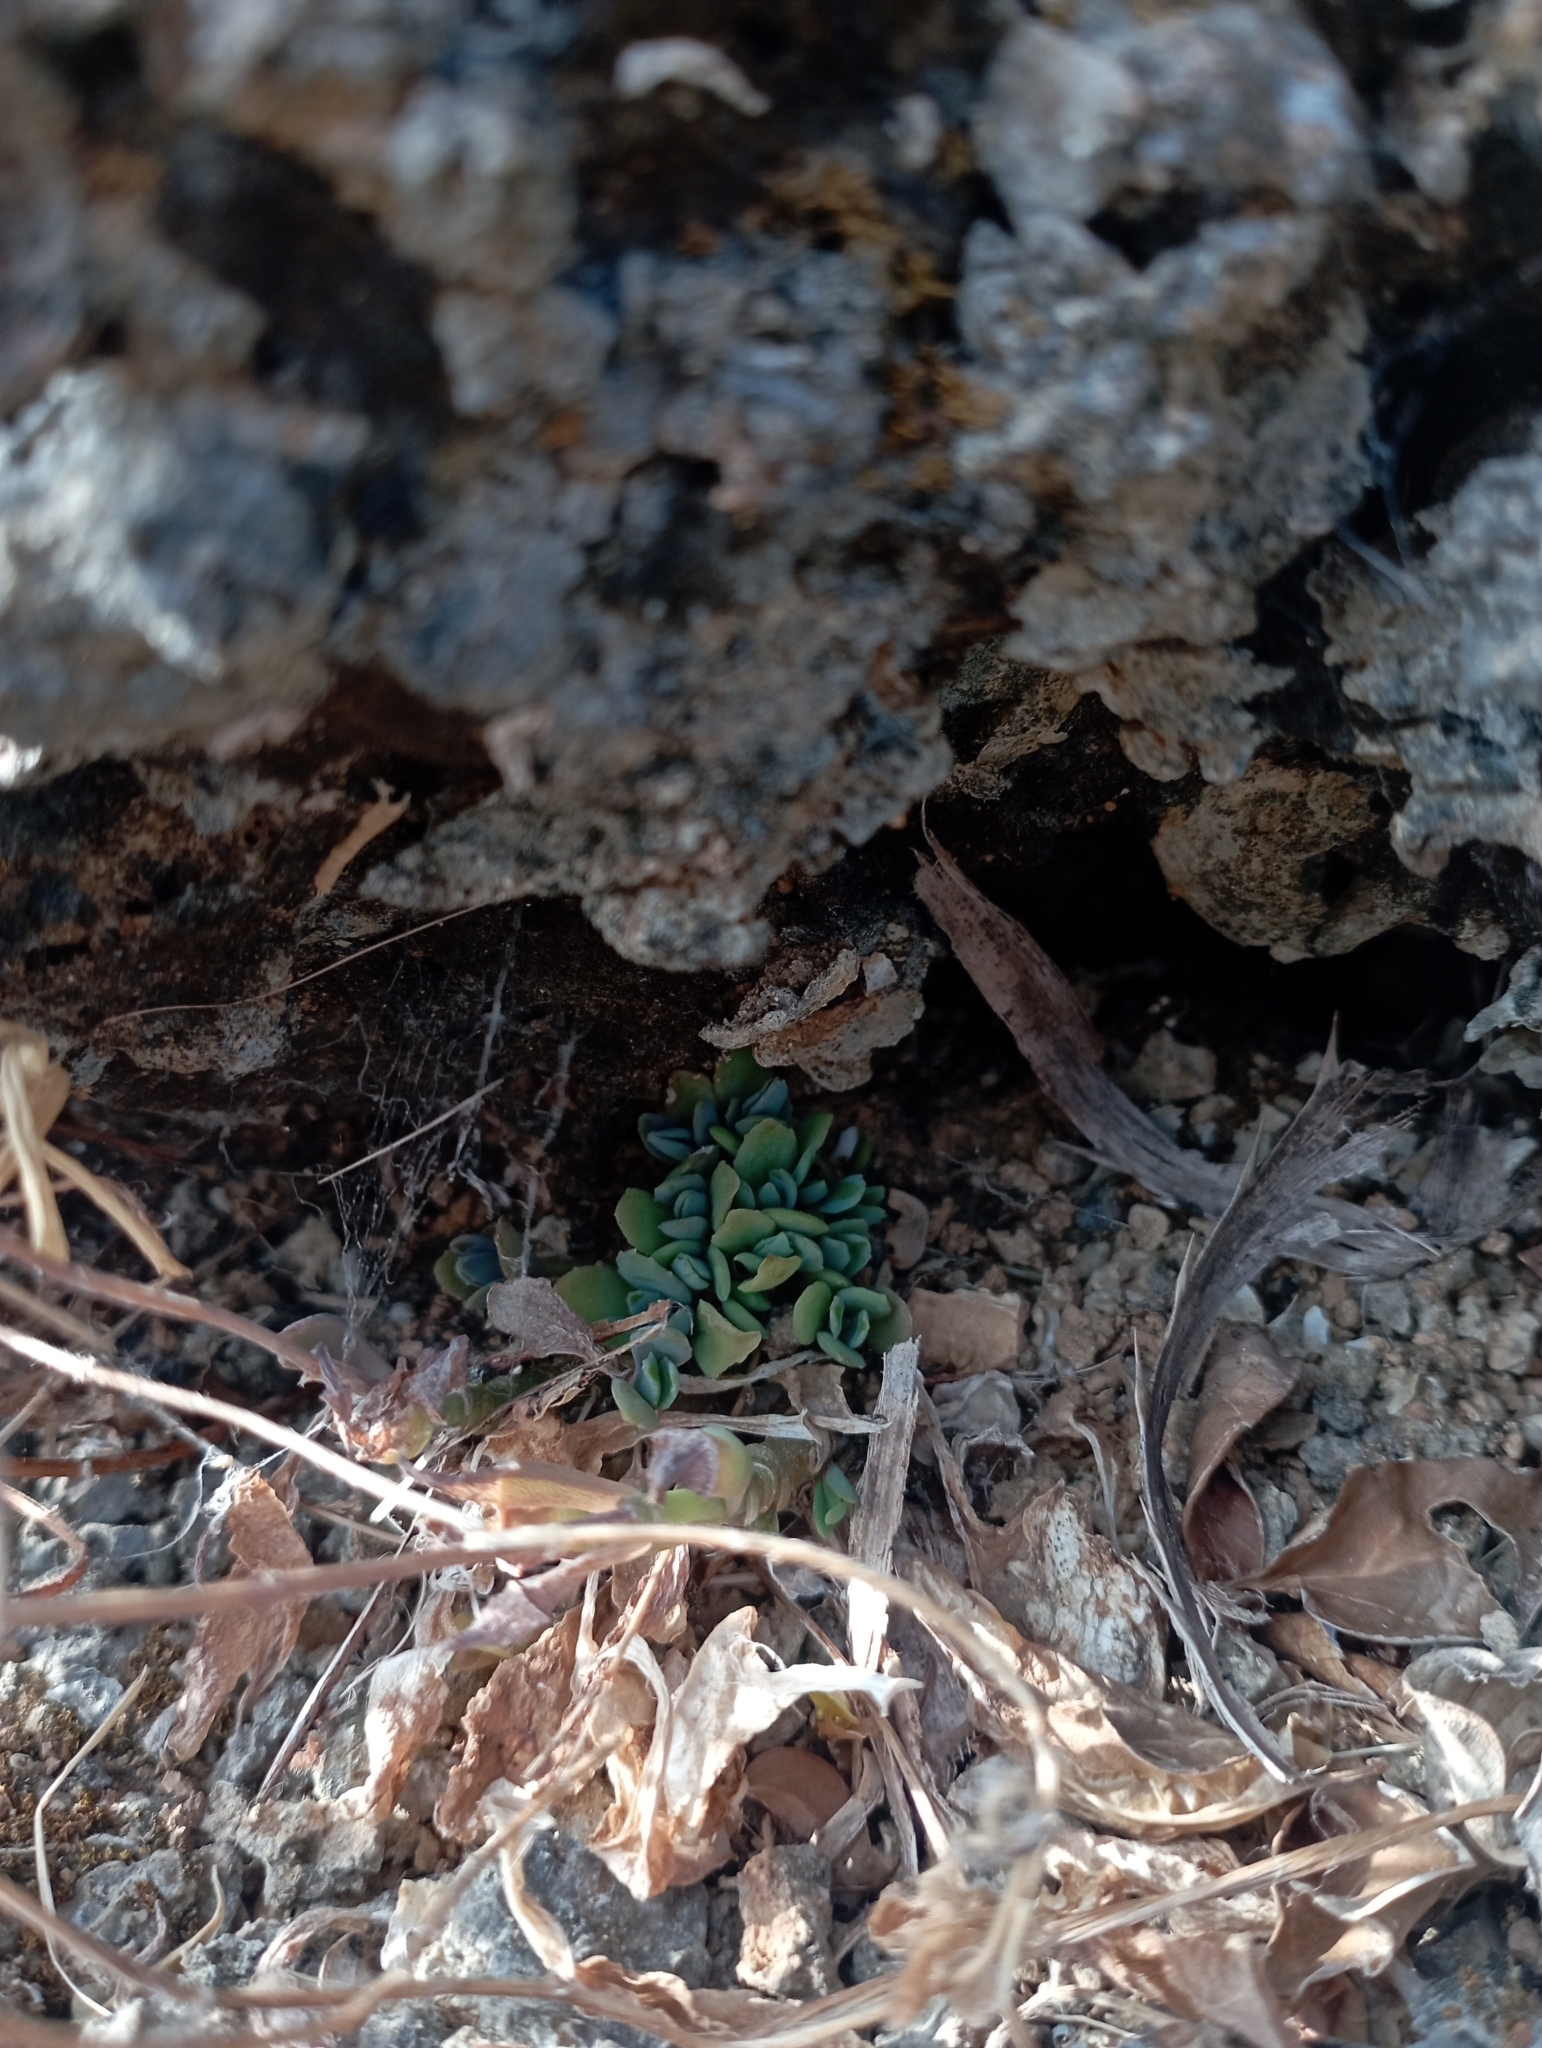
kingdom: Plantae
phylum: Tracheophyta
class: Magnoliopsida
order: Saxifragales
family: Crassulaceae
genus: Kalanchoe
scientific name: Kalanchoe integra
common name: Neverdie
